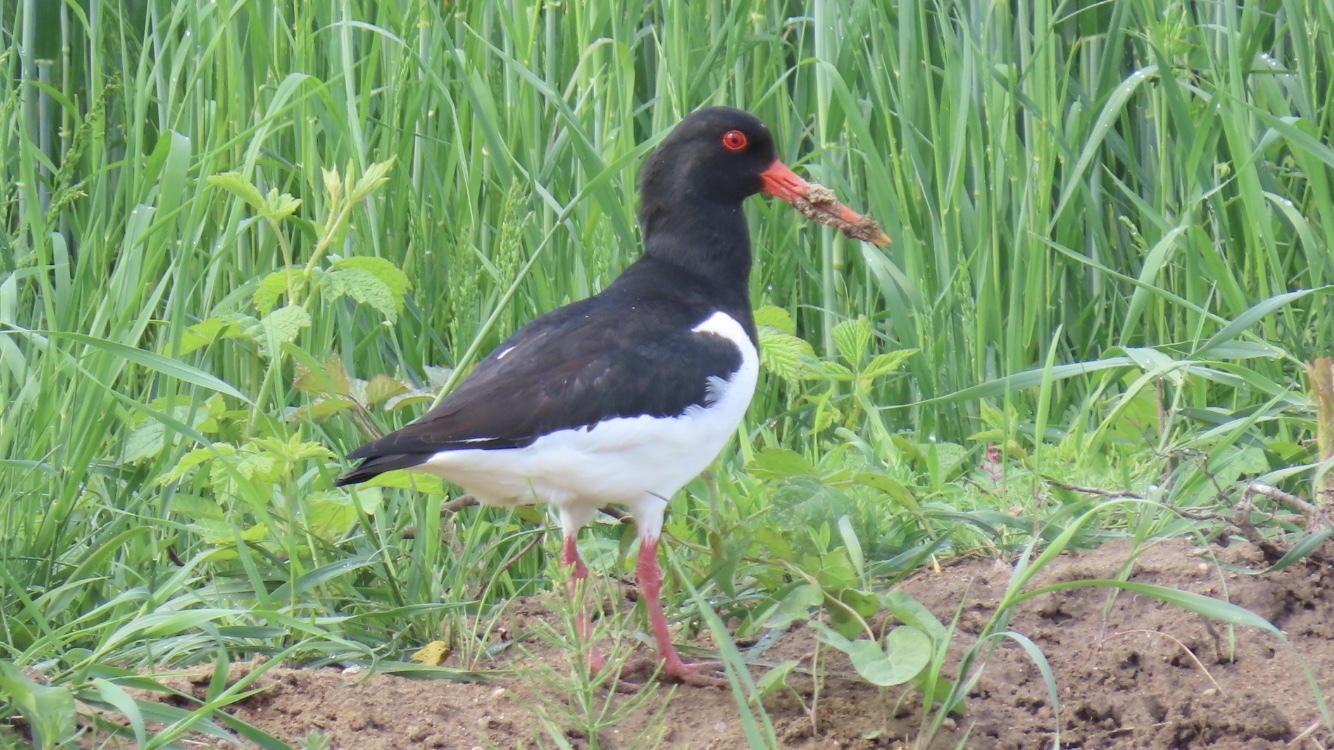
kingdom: Animalia
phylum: Chordata
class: Aves
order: Charadriiformes
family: Haematopodidae
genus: Haematopus
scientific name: Haematopus ostralegus
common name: Eurasian oystercatcher
